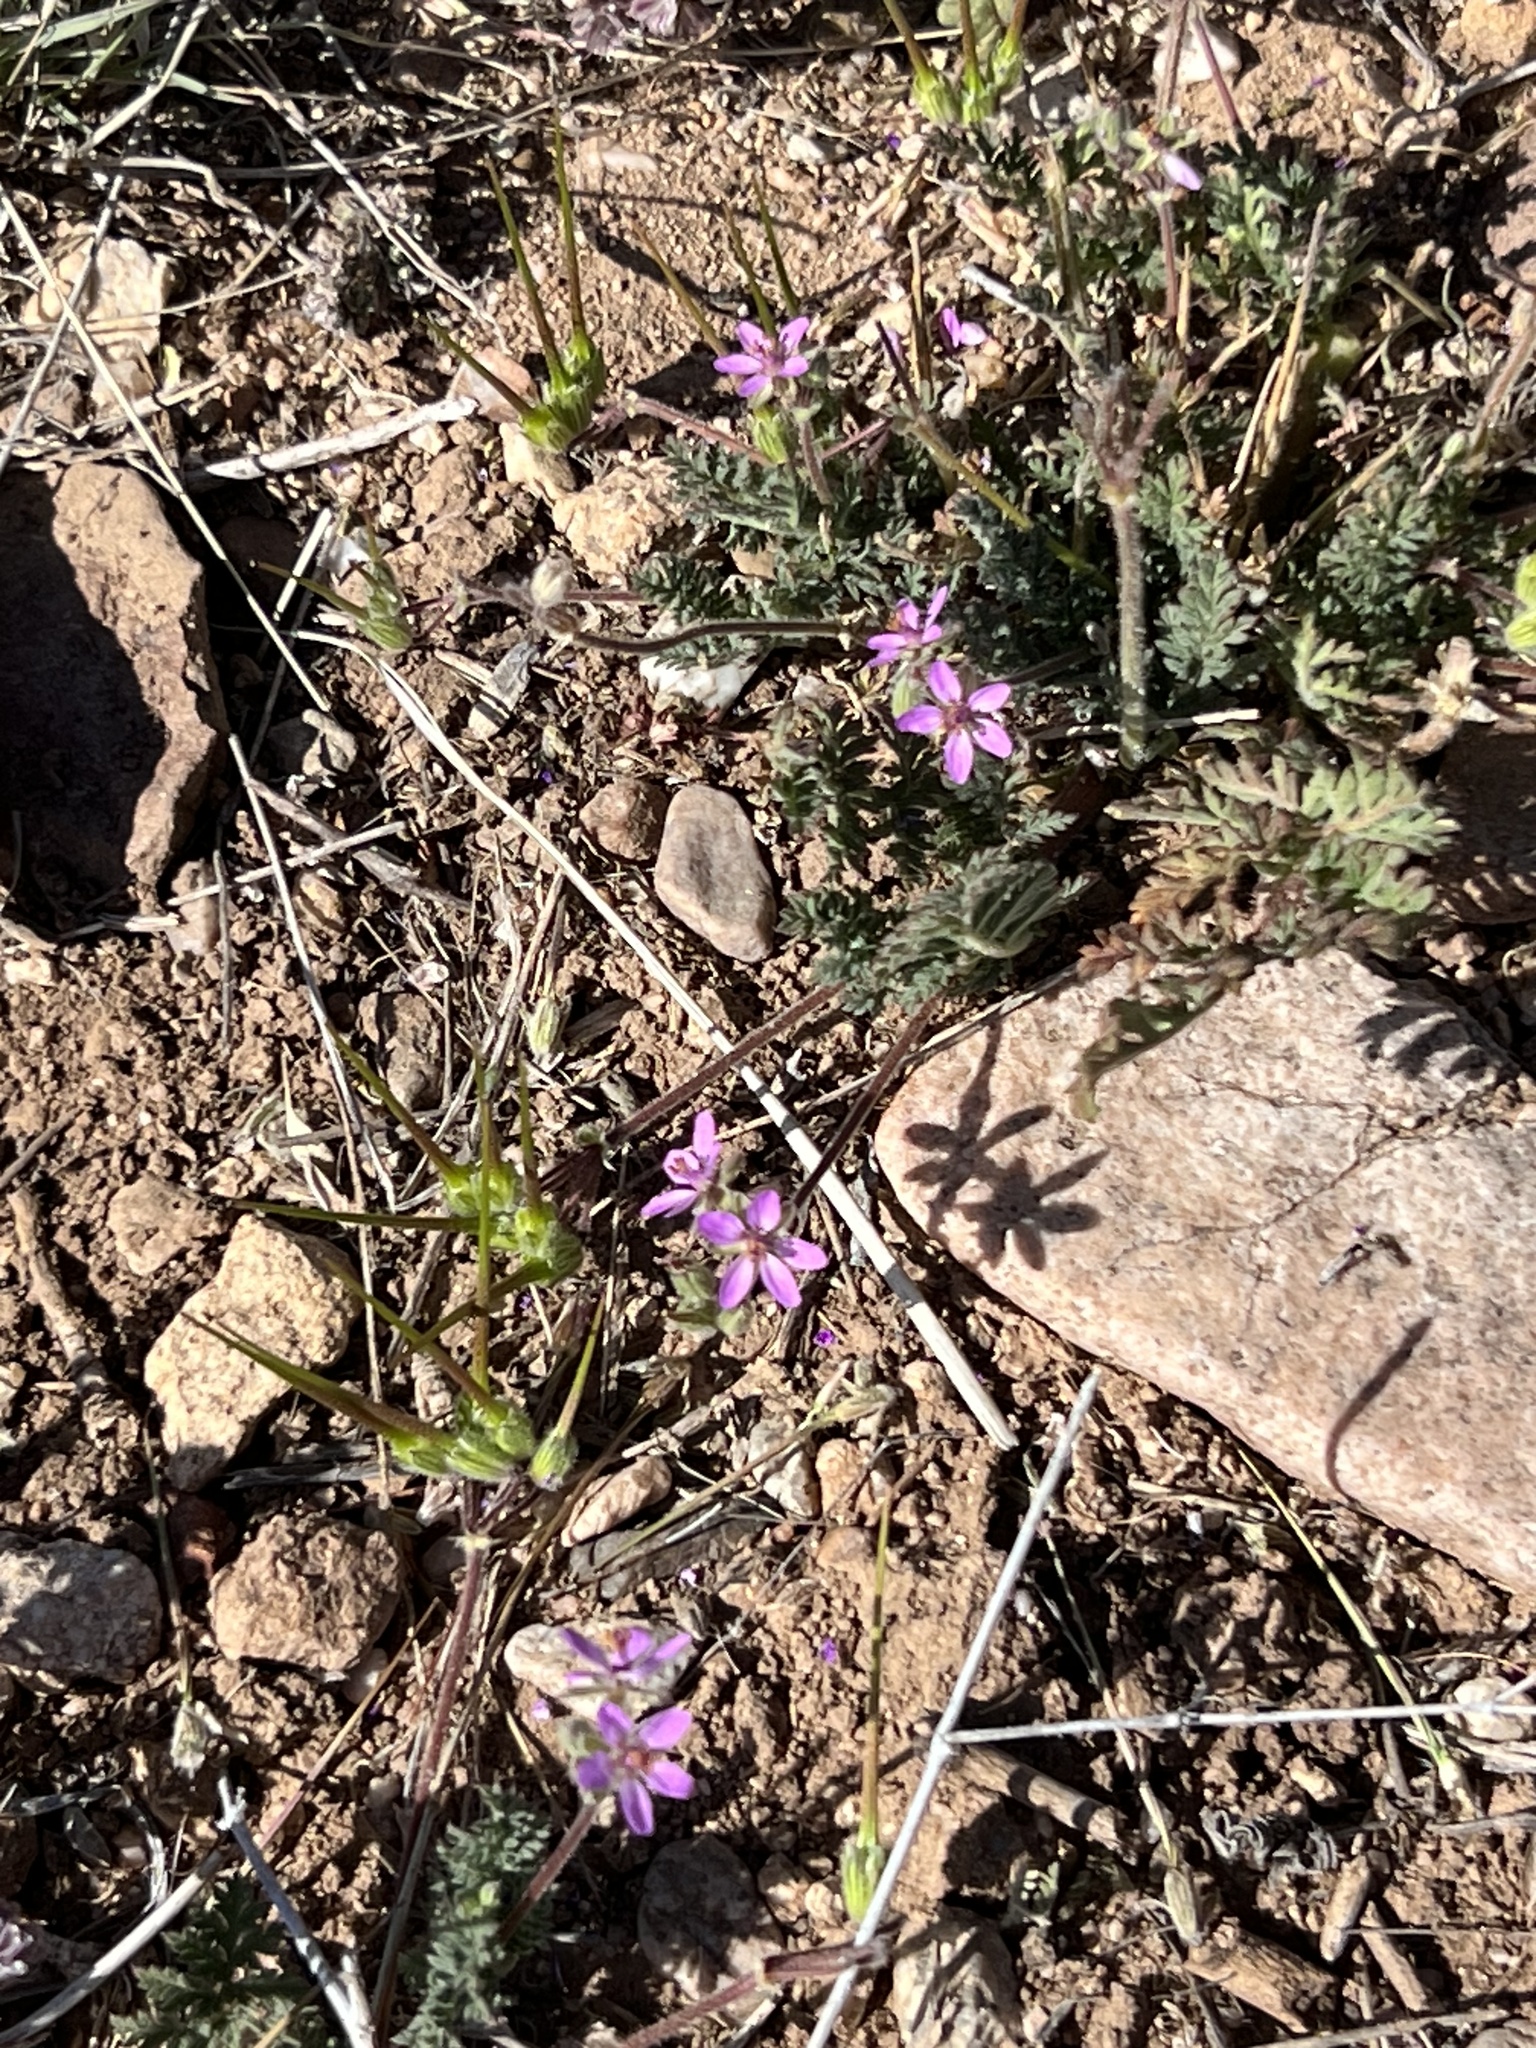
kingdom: Plantae
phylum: Tracheophyta
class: Magnoliopsida
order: Geraniales
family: Geraniaceae
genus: Erodium
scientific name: Erodium cicutarium
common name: Common stork's-bill
